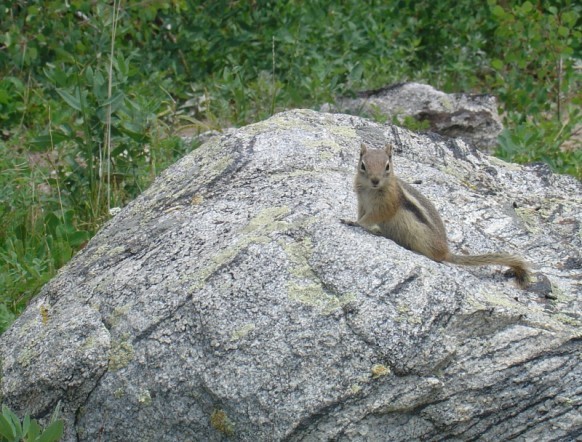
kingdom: Animalia
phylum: Chordata
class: Mammalia
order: Rodentia
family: Sciuridae
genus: Callospermophilus
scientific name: Callospermophilus lateralis
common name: Golden-mantled ground squirrel
